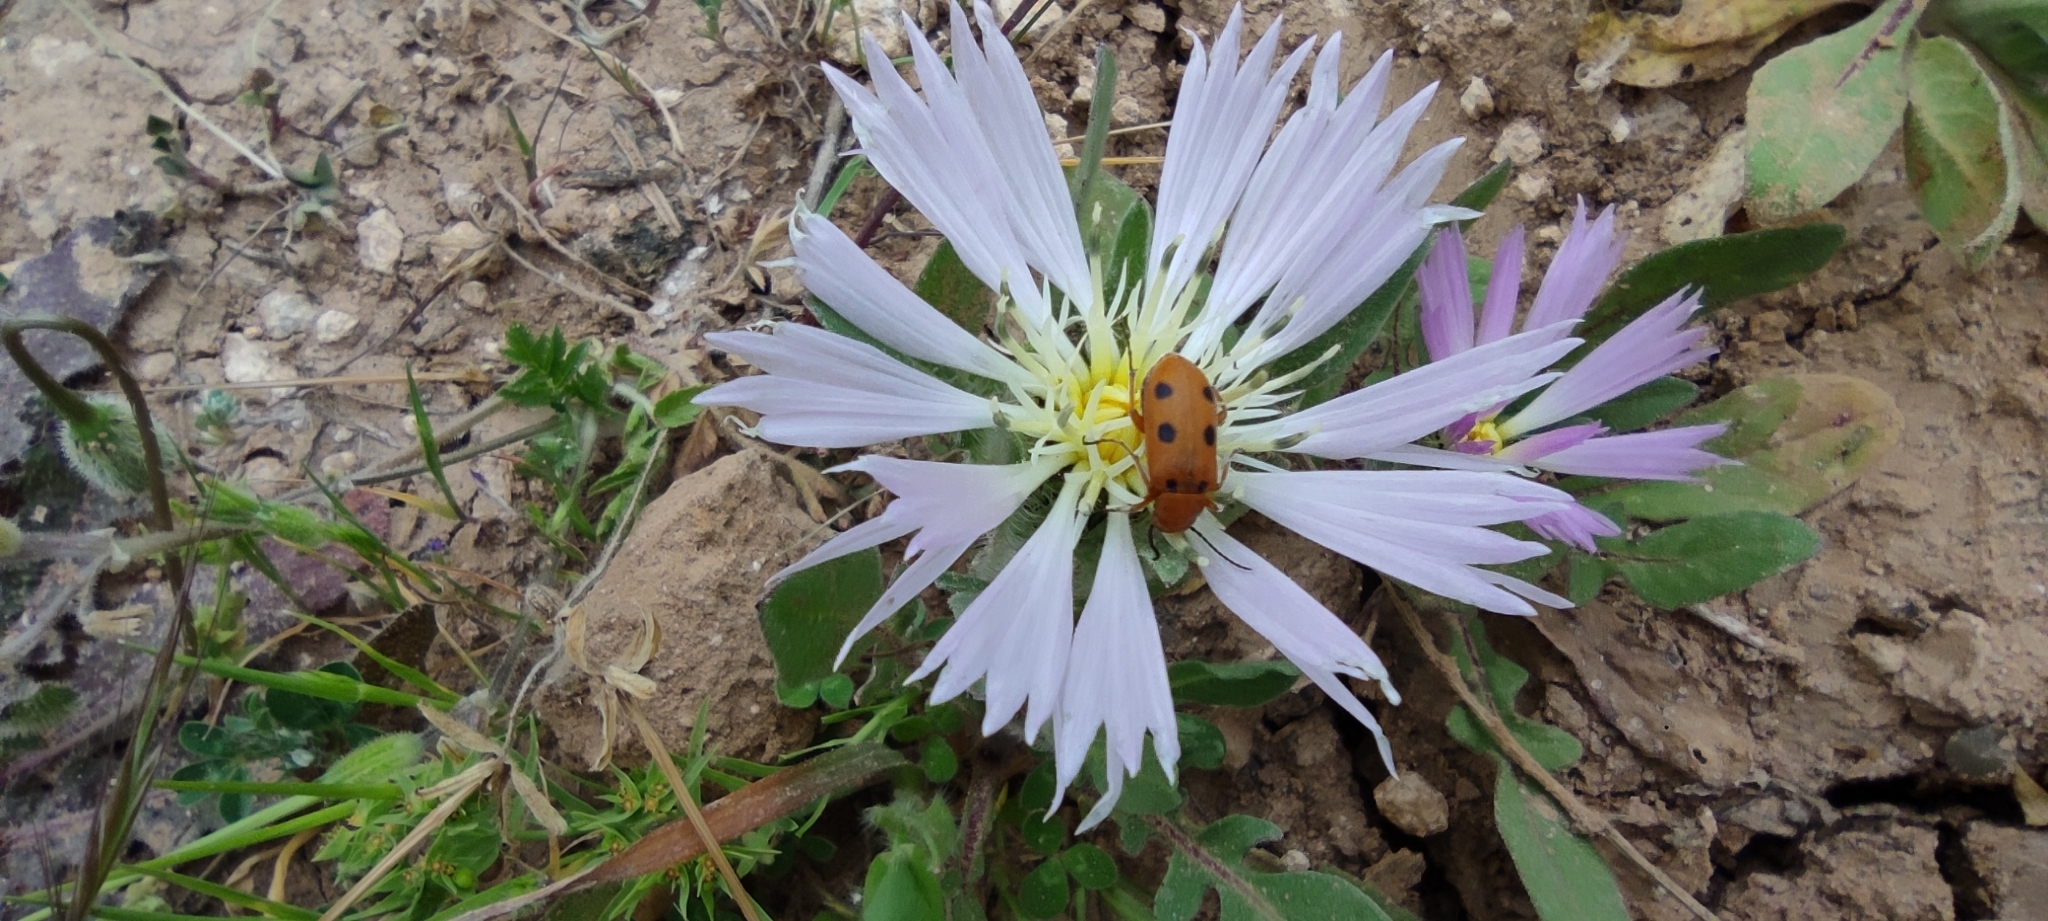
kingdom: Animalia
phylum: Arthropoda
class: Insecta
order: Coleoptera
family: Meloidae
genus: Leptopalpus
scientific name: Leptopalpus rostratus
